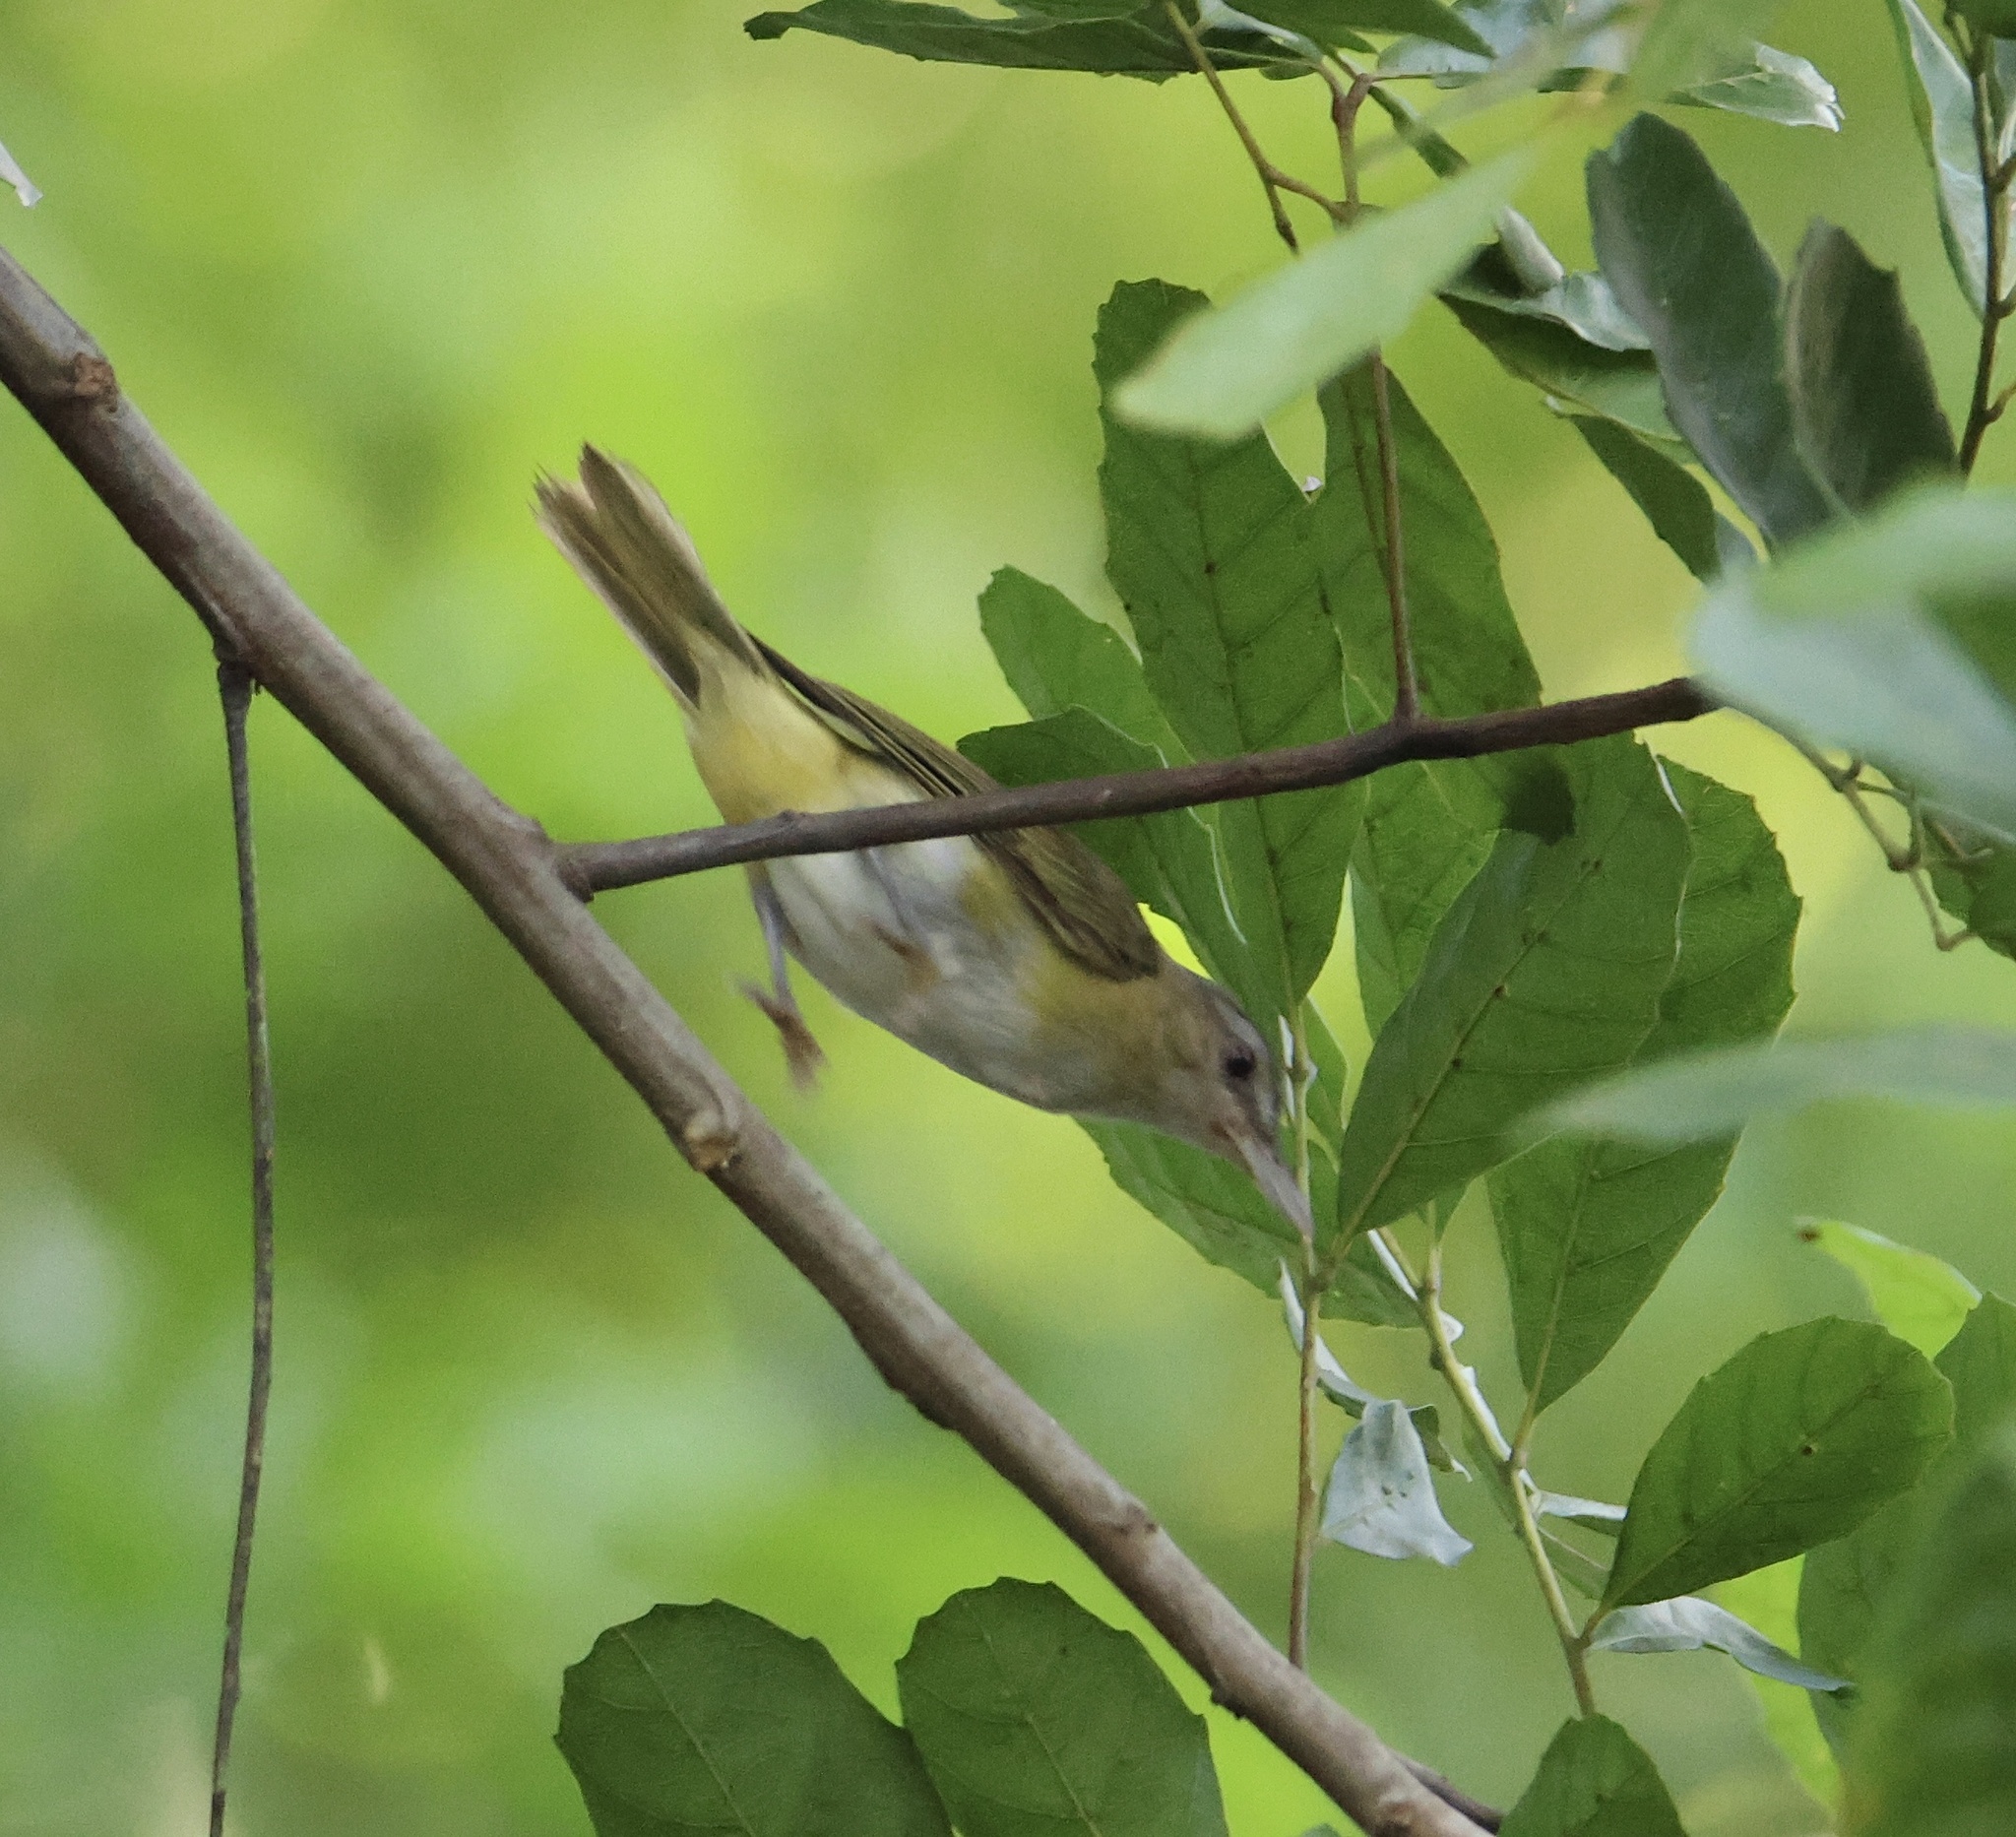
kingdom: Animalia
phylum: Chordata
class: Aves
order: Passeriformes
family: Vireonidae
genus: Vireo
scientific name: Vireo flavoviridis
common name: Yellow-green vireo
